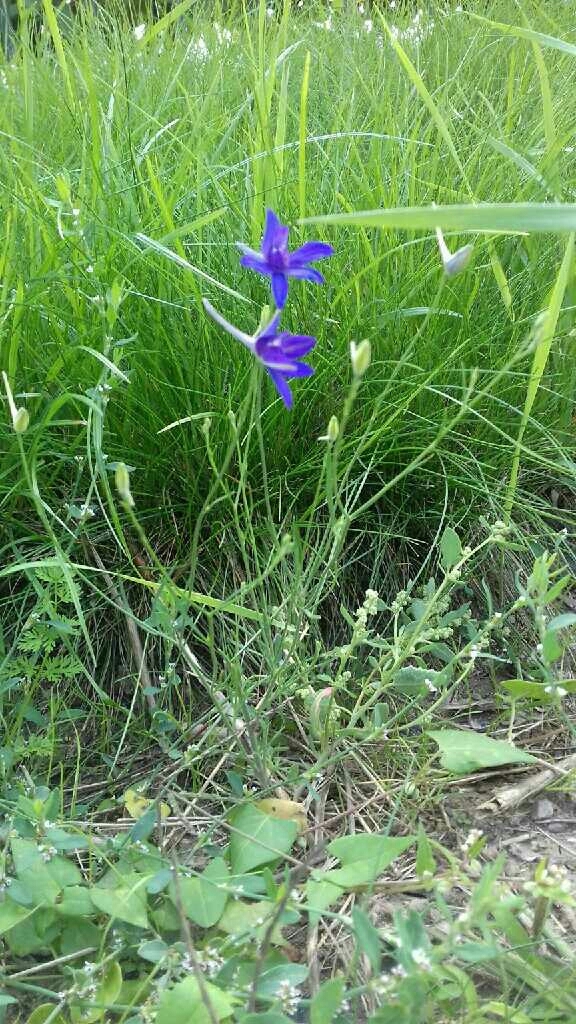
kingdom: Plantae
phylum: Tracheophyta
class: Magnoliopsida
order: Ranunculales
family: Ranunculaceae
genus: Delphinium
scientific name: Delphinium consolida
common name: Branching larkspur
